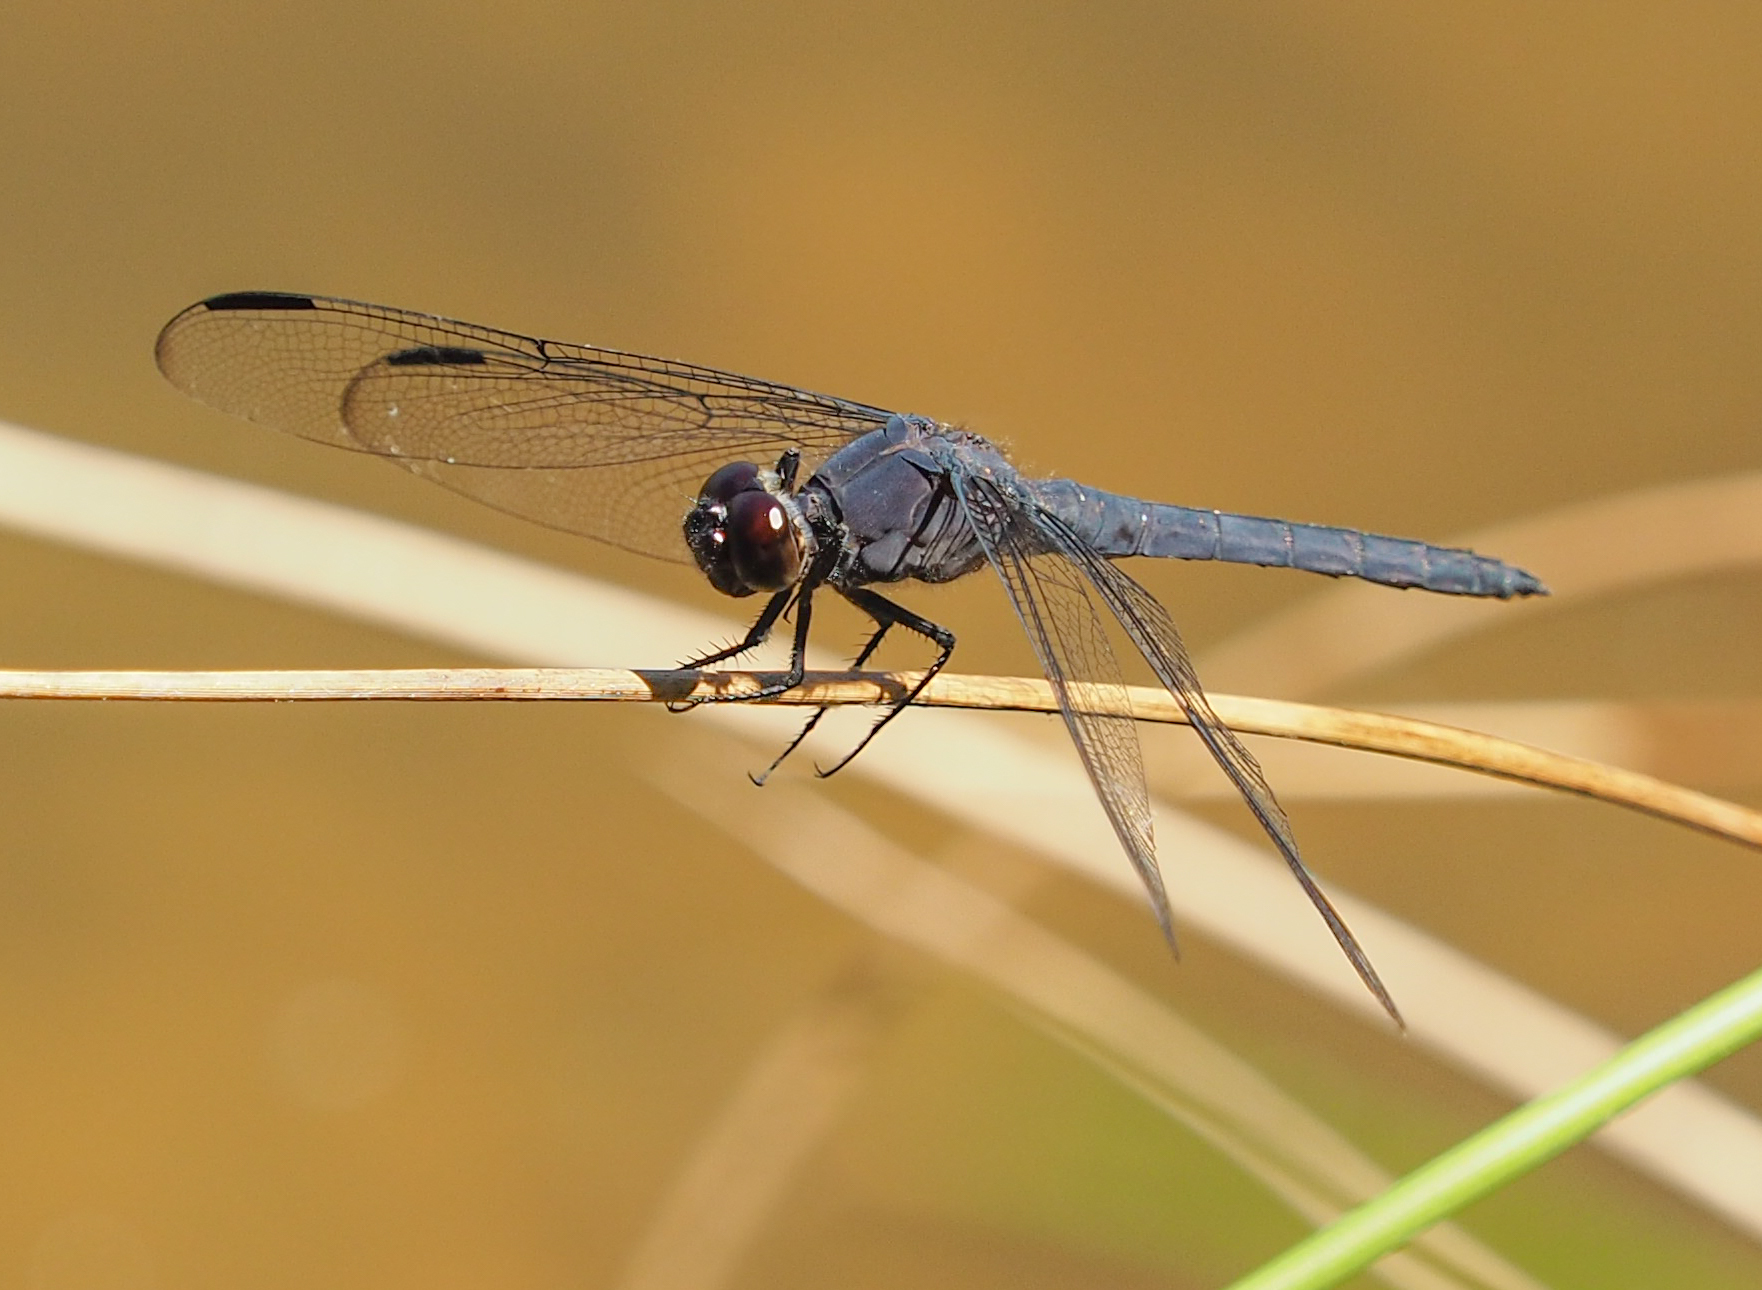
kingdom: Animalia
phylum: Arthropoda
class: Insecta
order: Odonata
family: Libellulidae
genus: Libellula
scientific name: Libellula incesta
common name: Slaty skimmer
